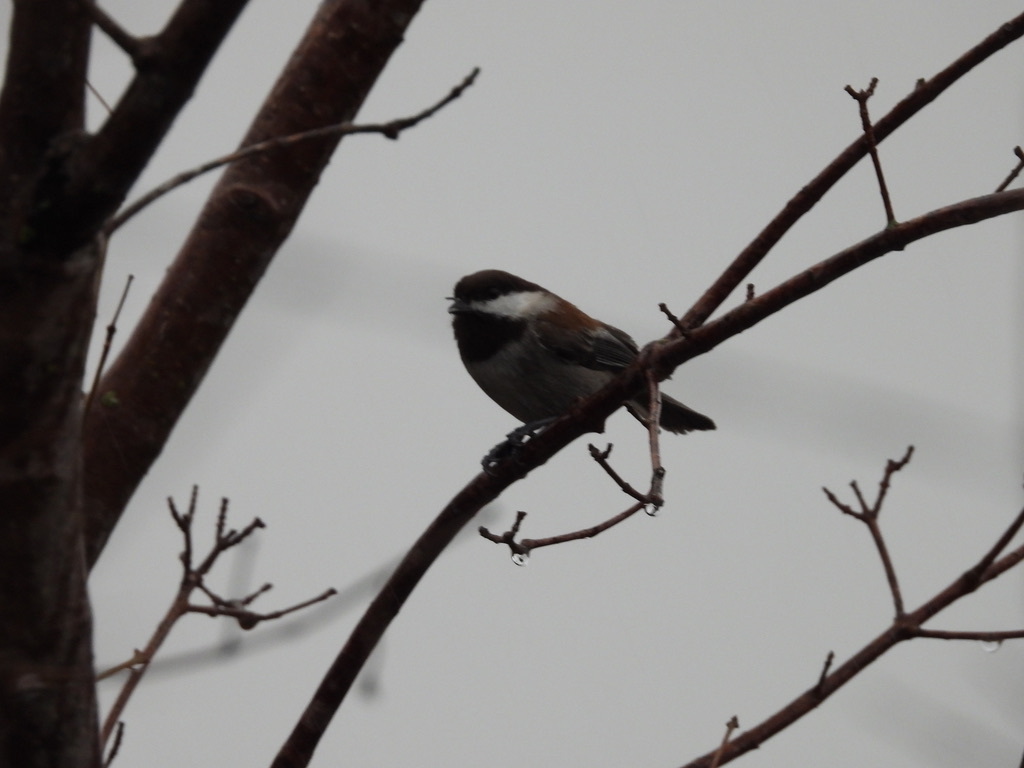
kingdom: Animalia
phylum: Chordata
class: Aves
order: Passeriformes
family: Paridae
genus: Poecile
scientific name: Poecile rufescens
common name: Chestnut-backed chickadee
